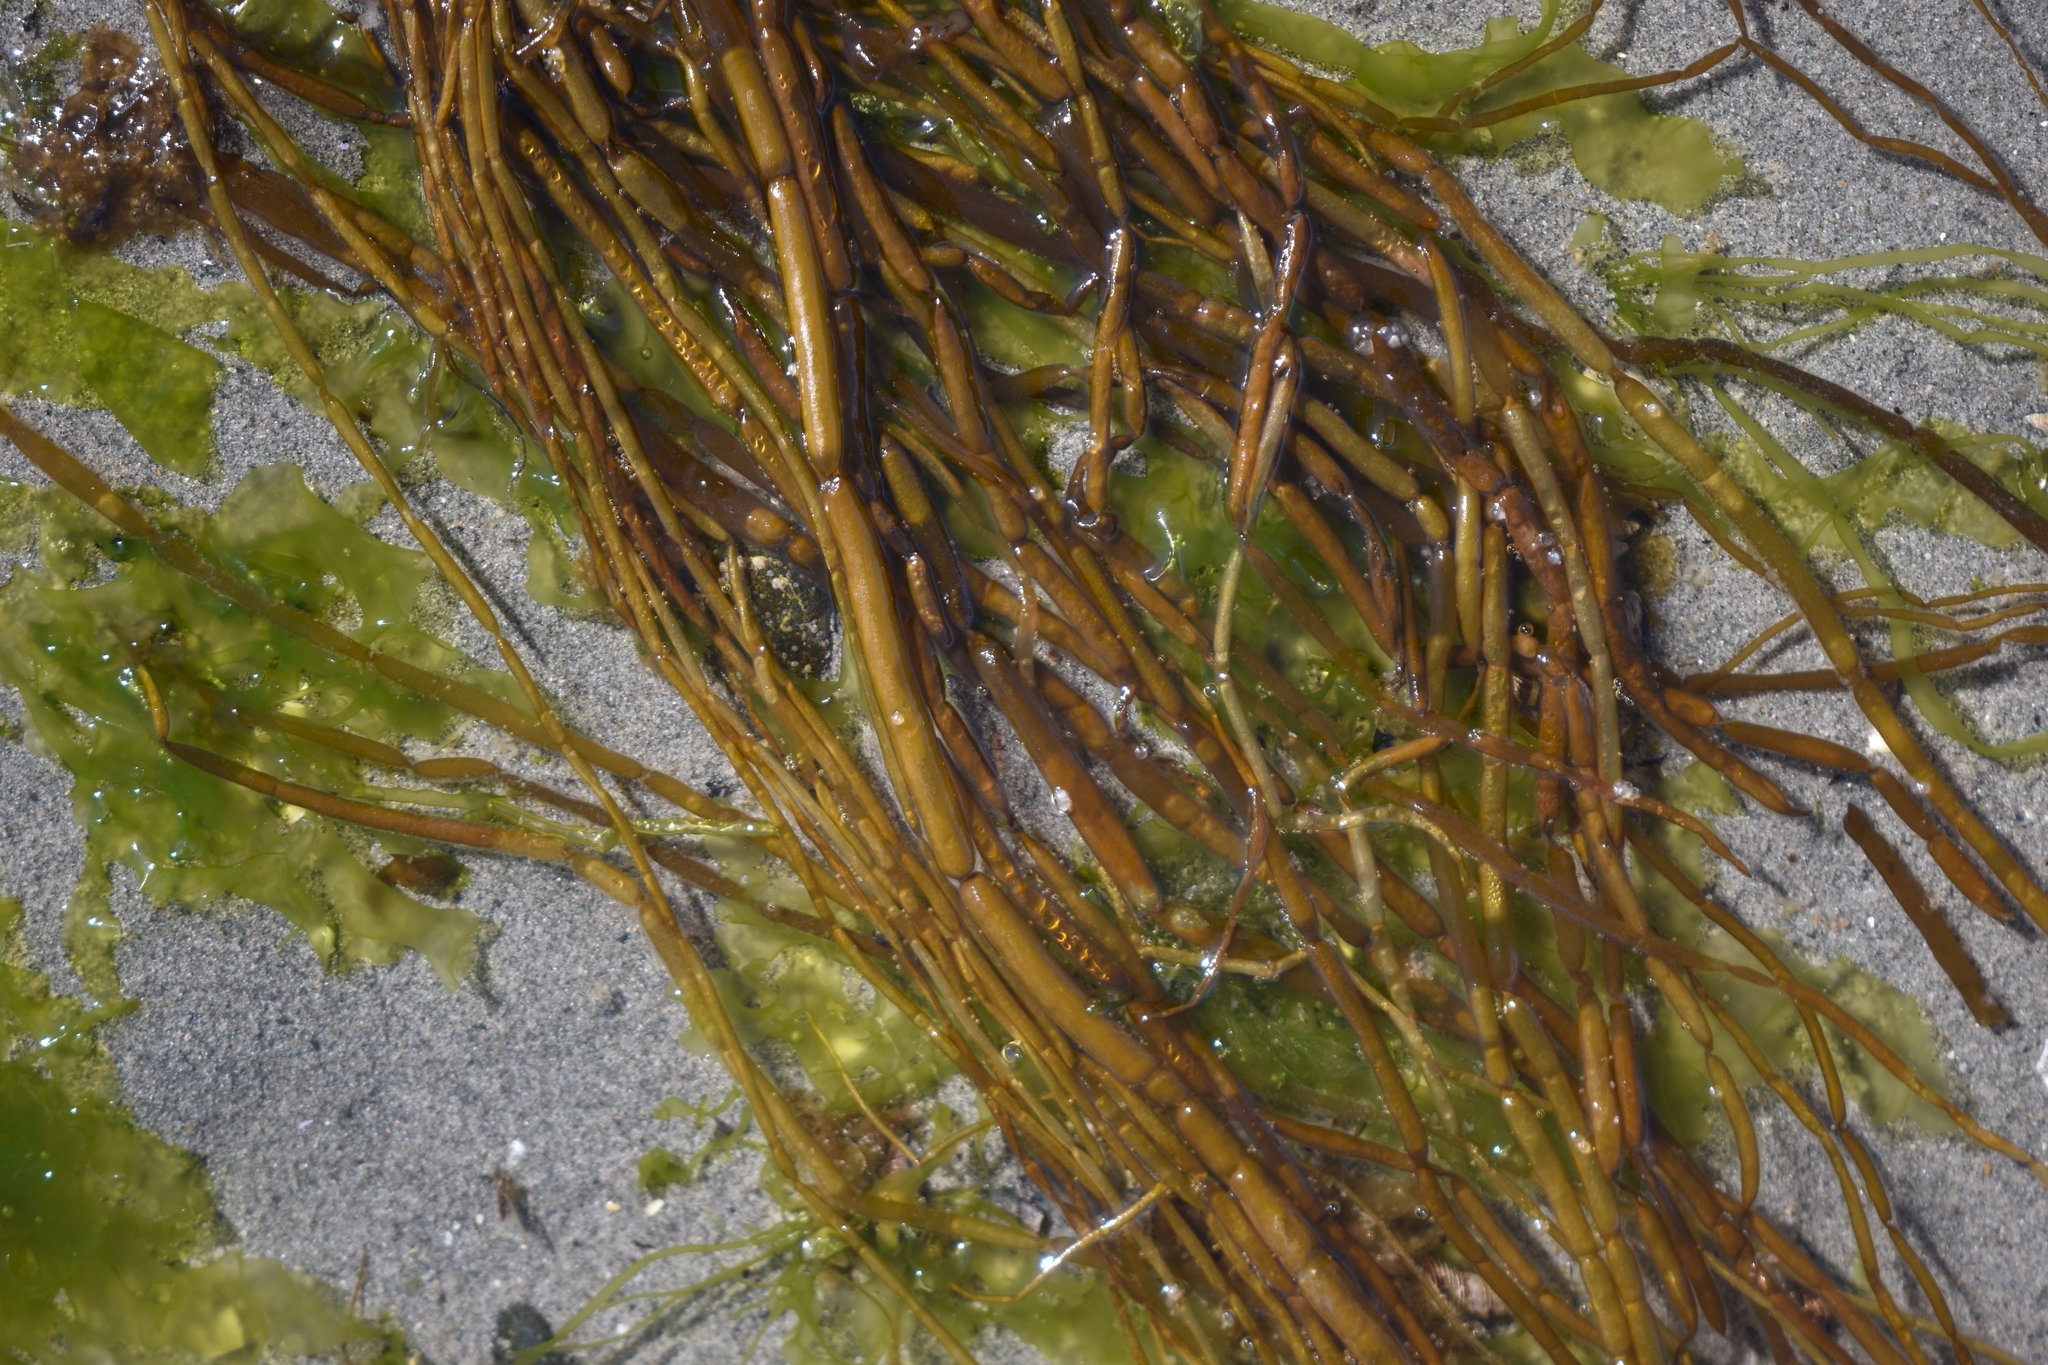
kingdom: Chromista
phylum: Ochrophyta
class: Phaeophyceae
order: Scytosiphonales
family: Scytosiphonaceae
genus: Scytosiphon
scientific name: Scytosiphon lomentaria
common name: Beanweed
